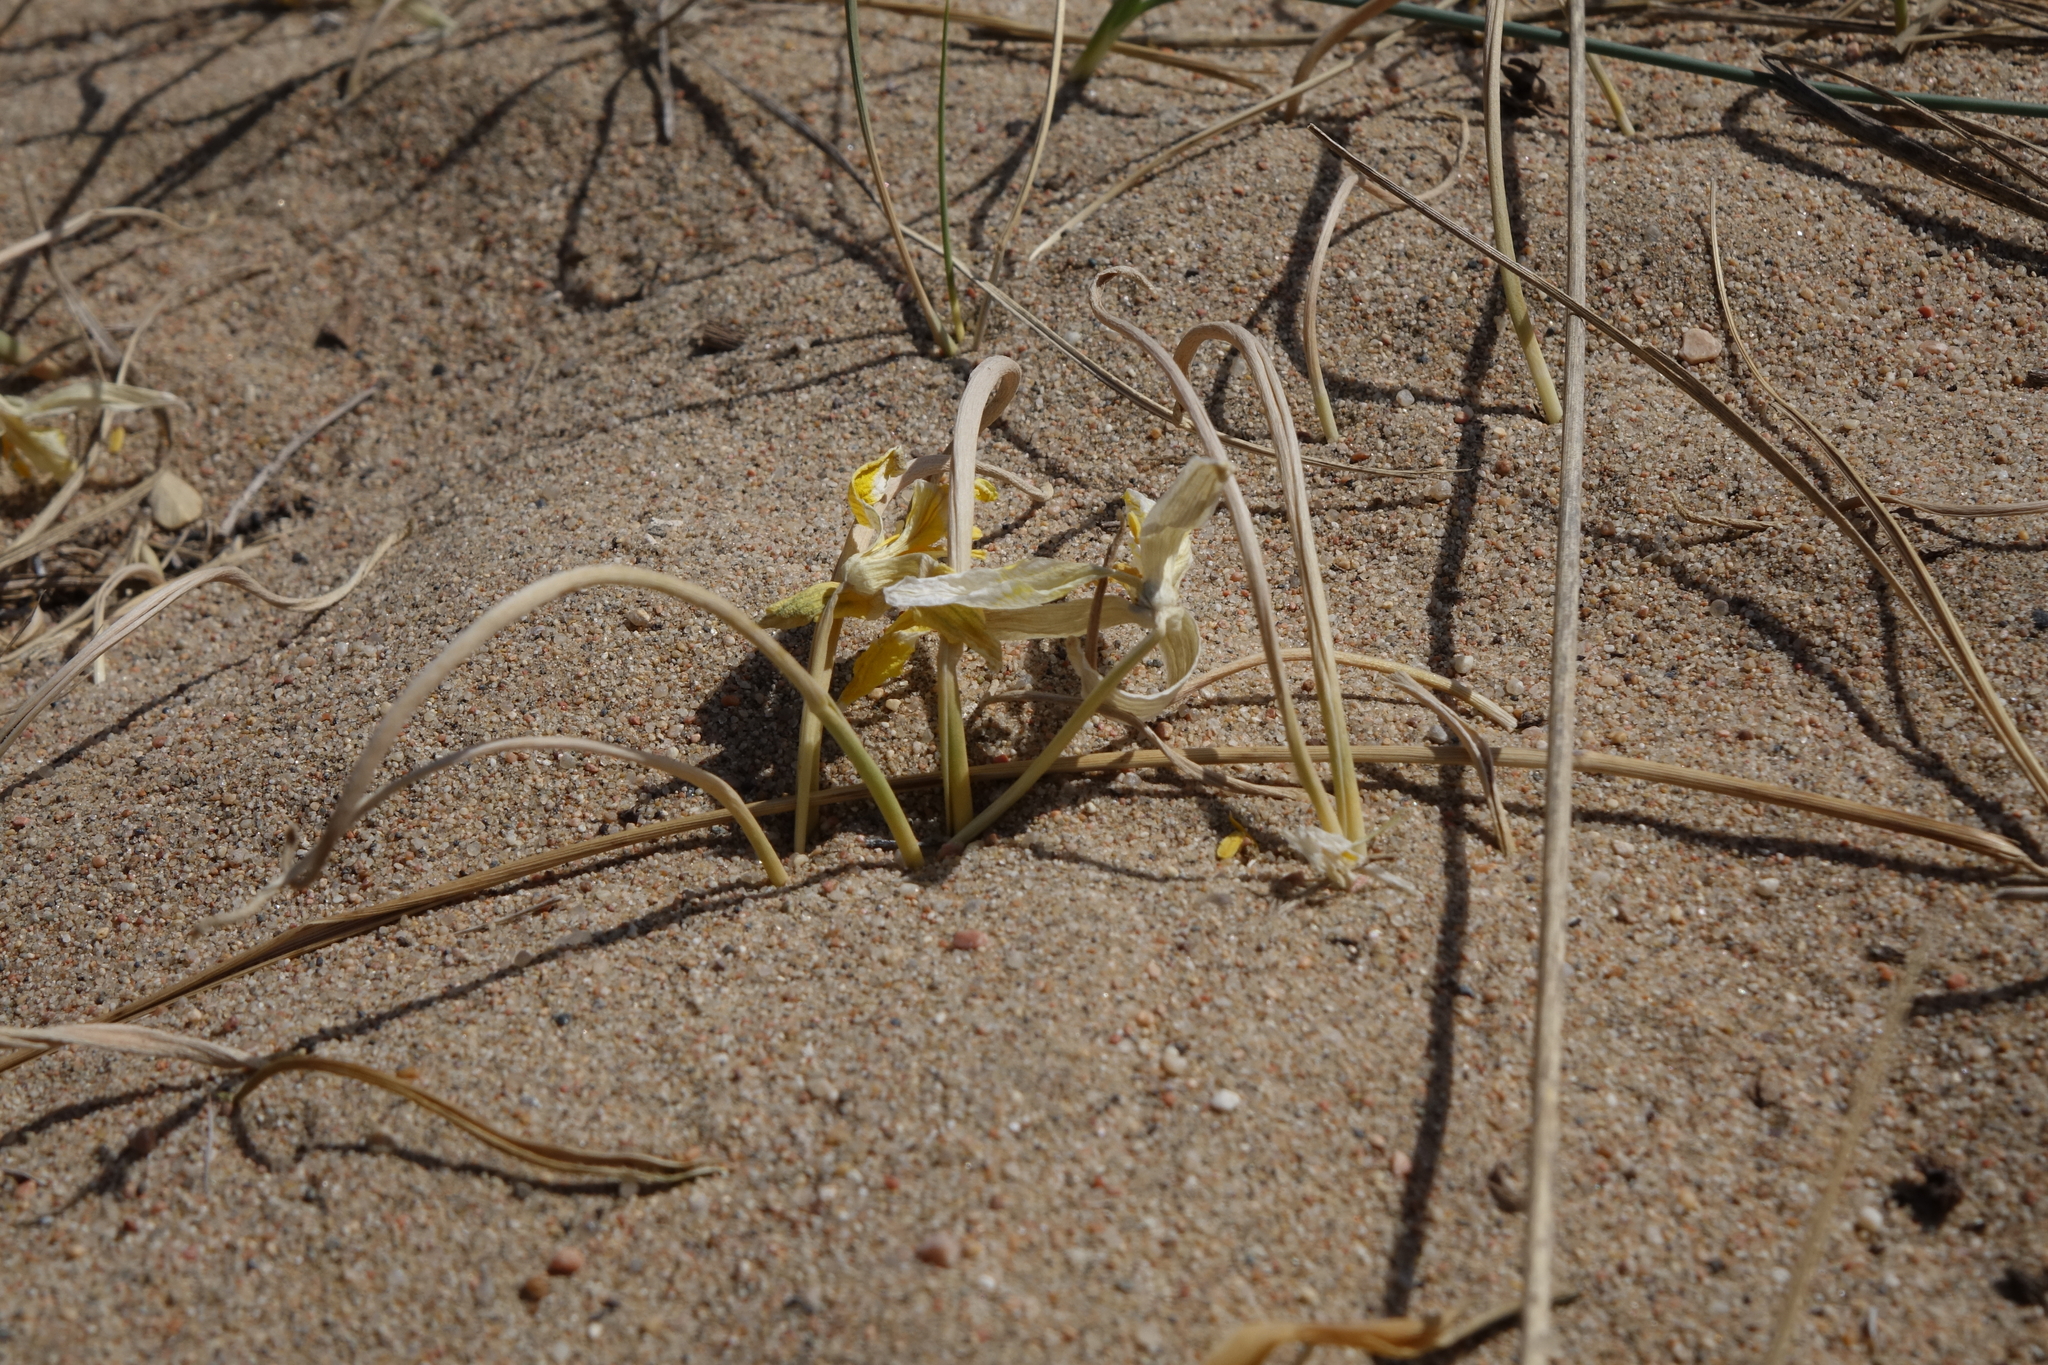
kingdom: Plantae
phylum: Tracheophyta
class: Liliopsida
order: Liliales
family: Liliaceae
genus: Tulipa
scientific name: Tulipa uniflora
